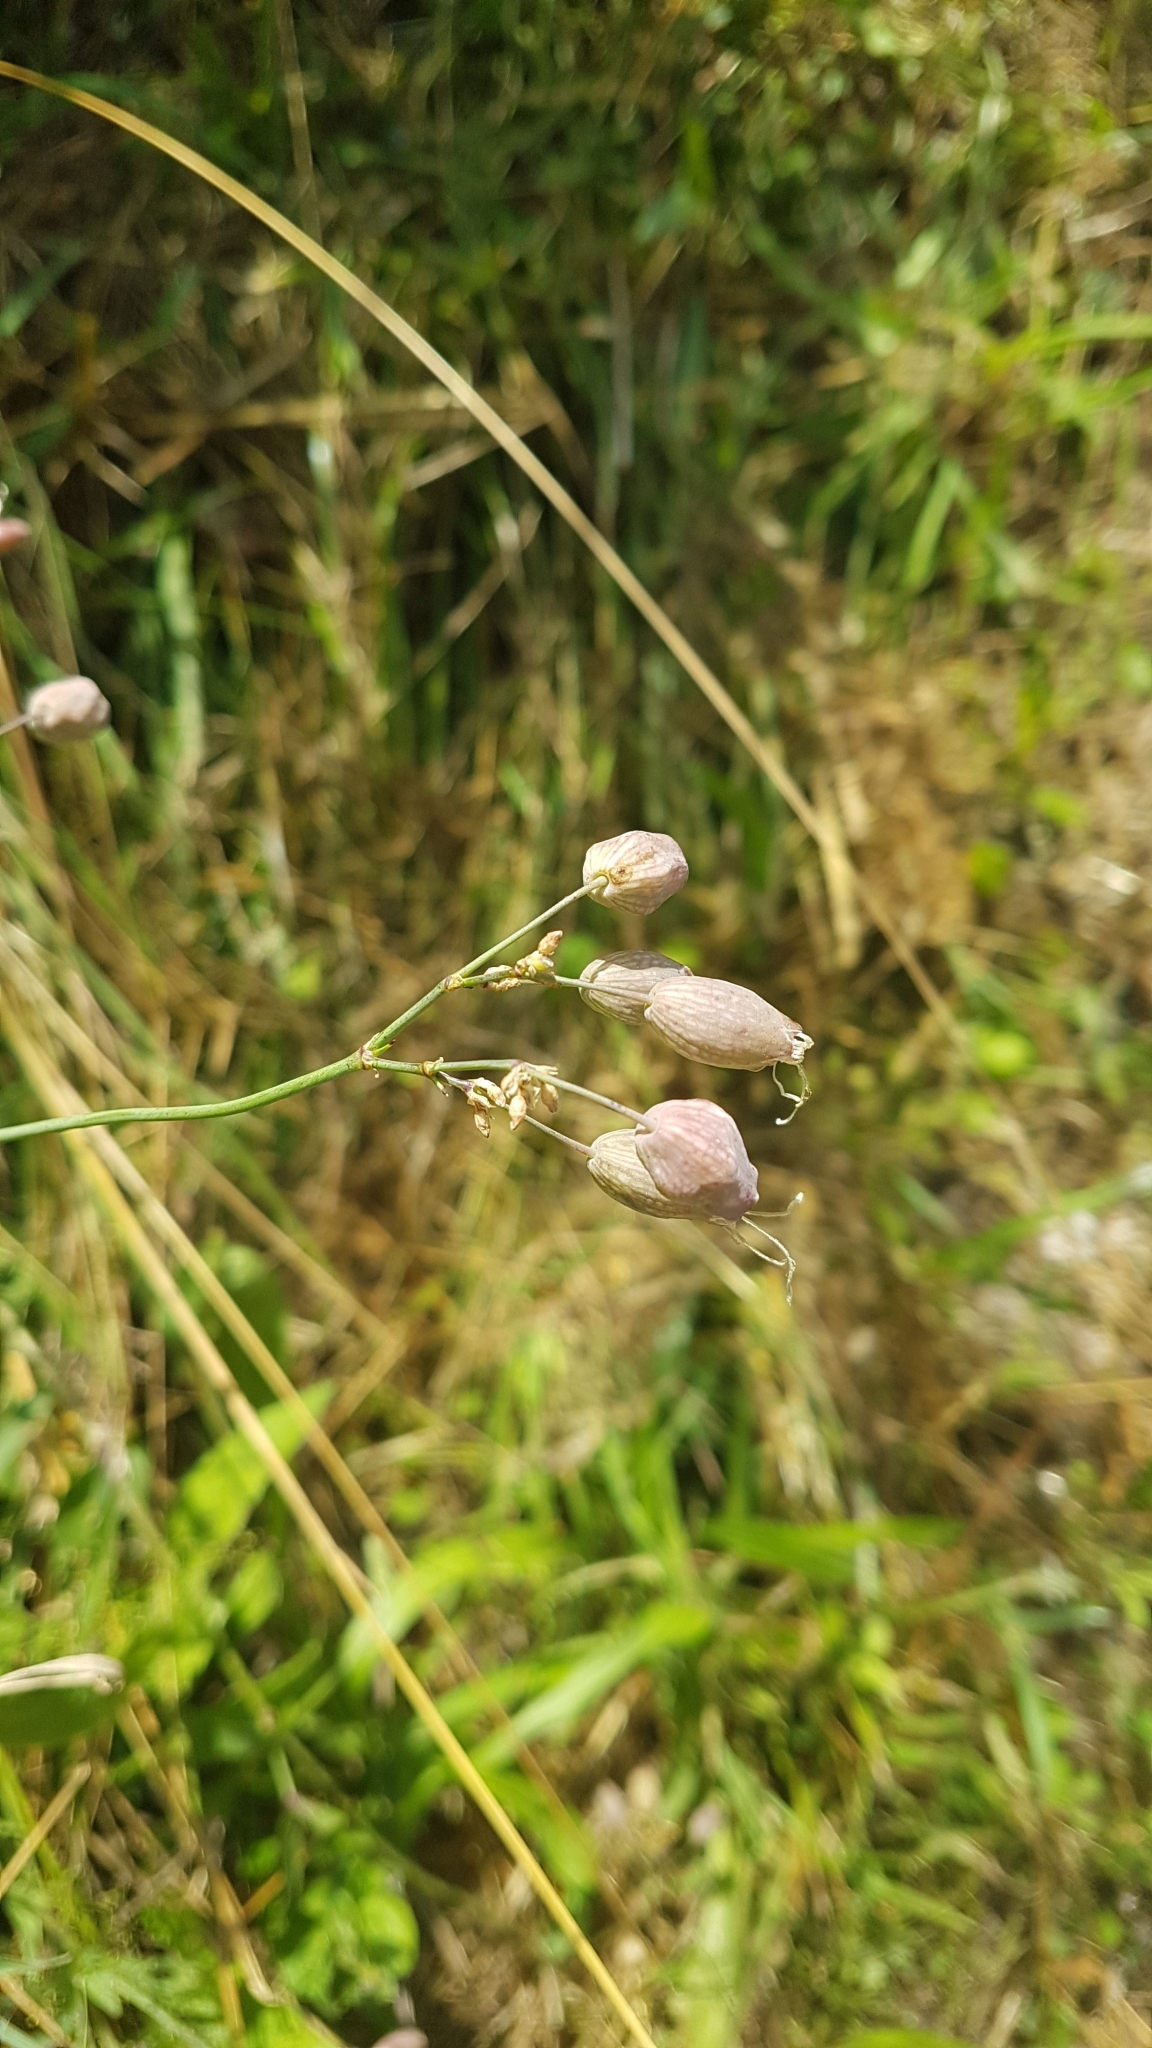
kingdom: Plantae
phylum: Tracheophyta
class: Magnoliopsida
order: Caryophyllales
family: Caryophyllaceae
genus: Silene
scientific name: Silene vulgaris
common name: Bladder campion
